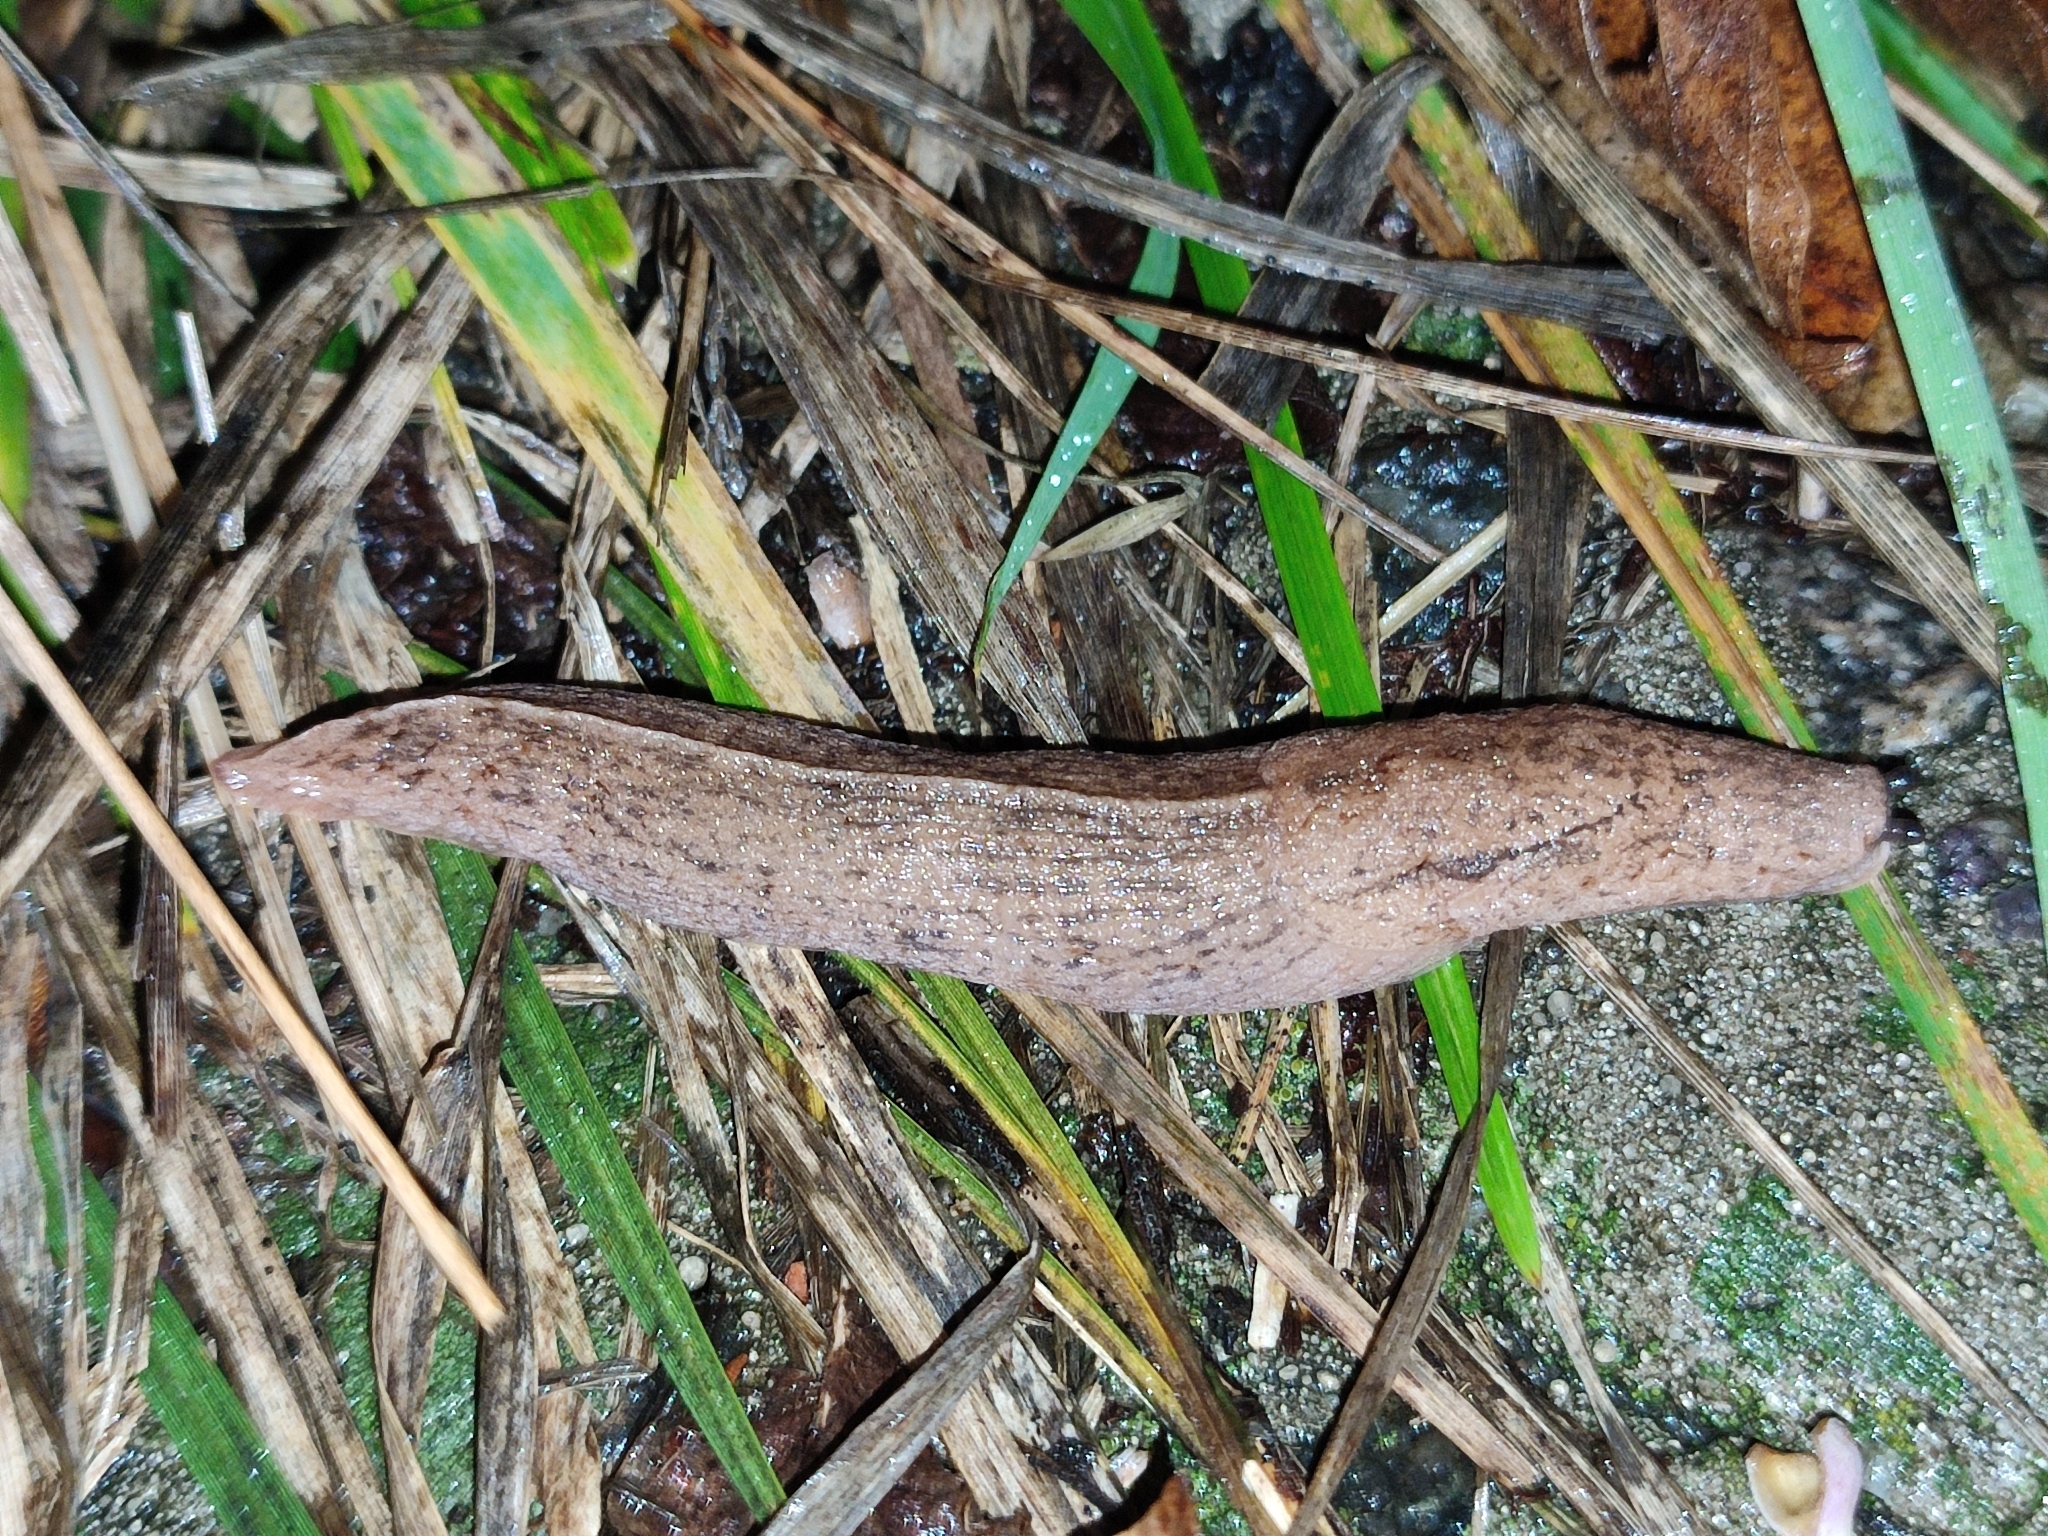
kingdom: Animalia
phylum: Mollusca
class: Gastropoda
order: Stylommatophora
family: Milacidae
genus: Tandonia
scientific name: Tandonia kusceri
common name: Keeled slug
